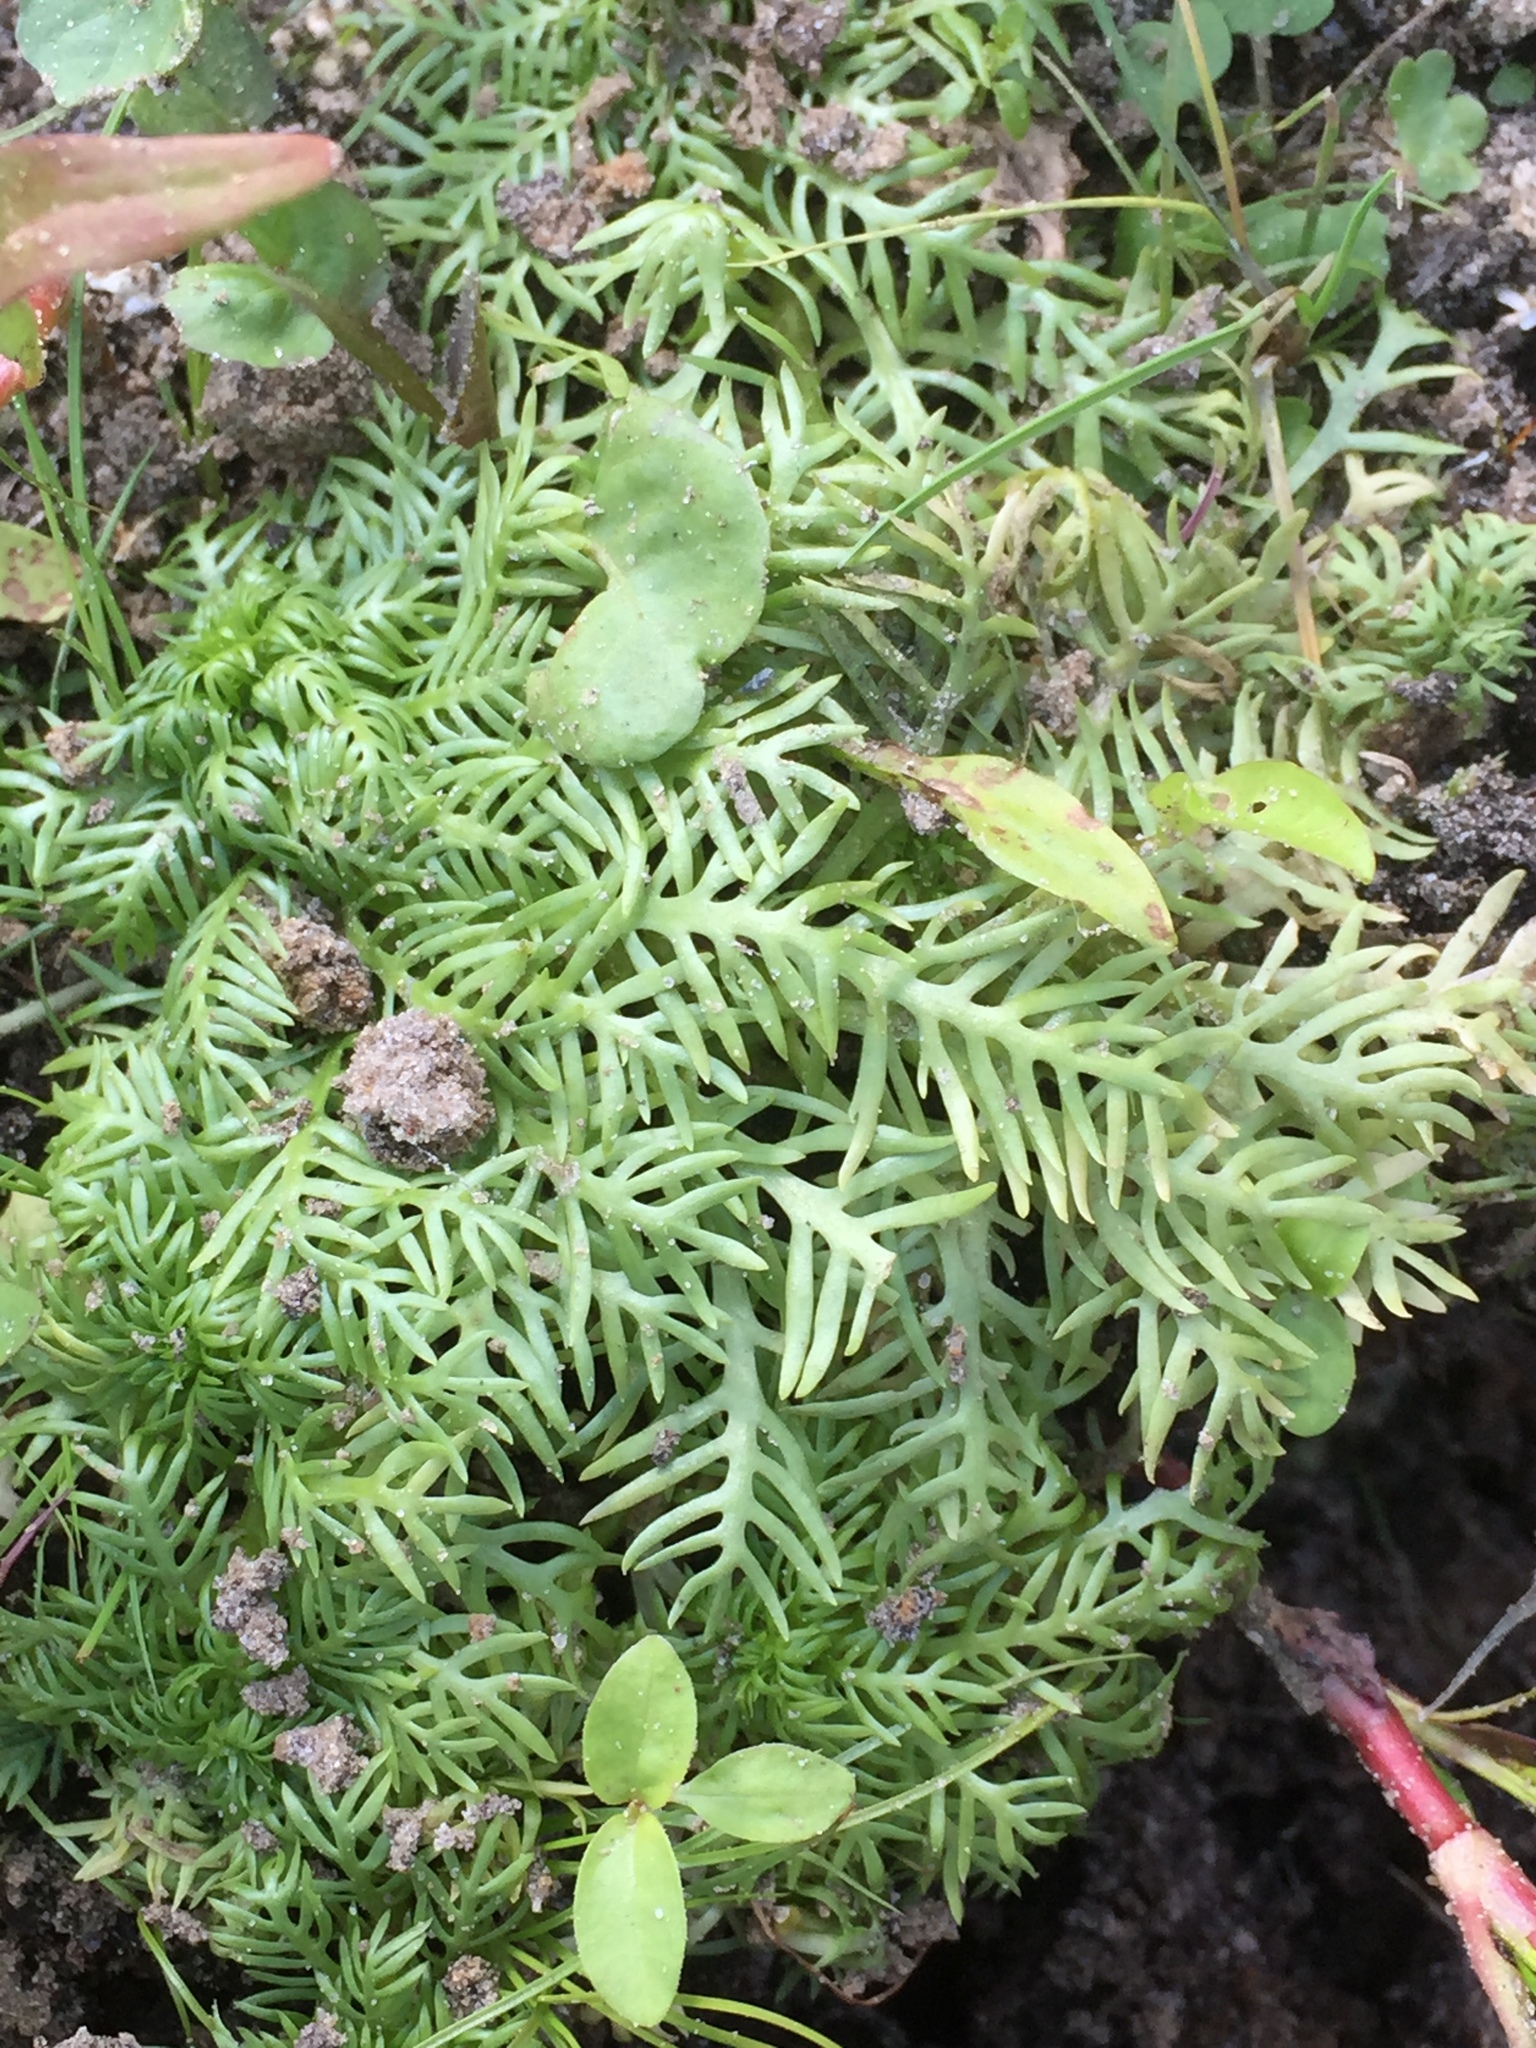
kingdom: Plantae
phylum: Tracheophyta
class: Magnoliopsida
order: Ericales
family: Primulaceae
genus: Hottonia
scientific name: Hottonia palustris
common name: Water-violet
